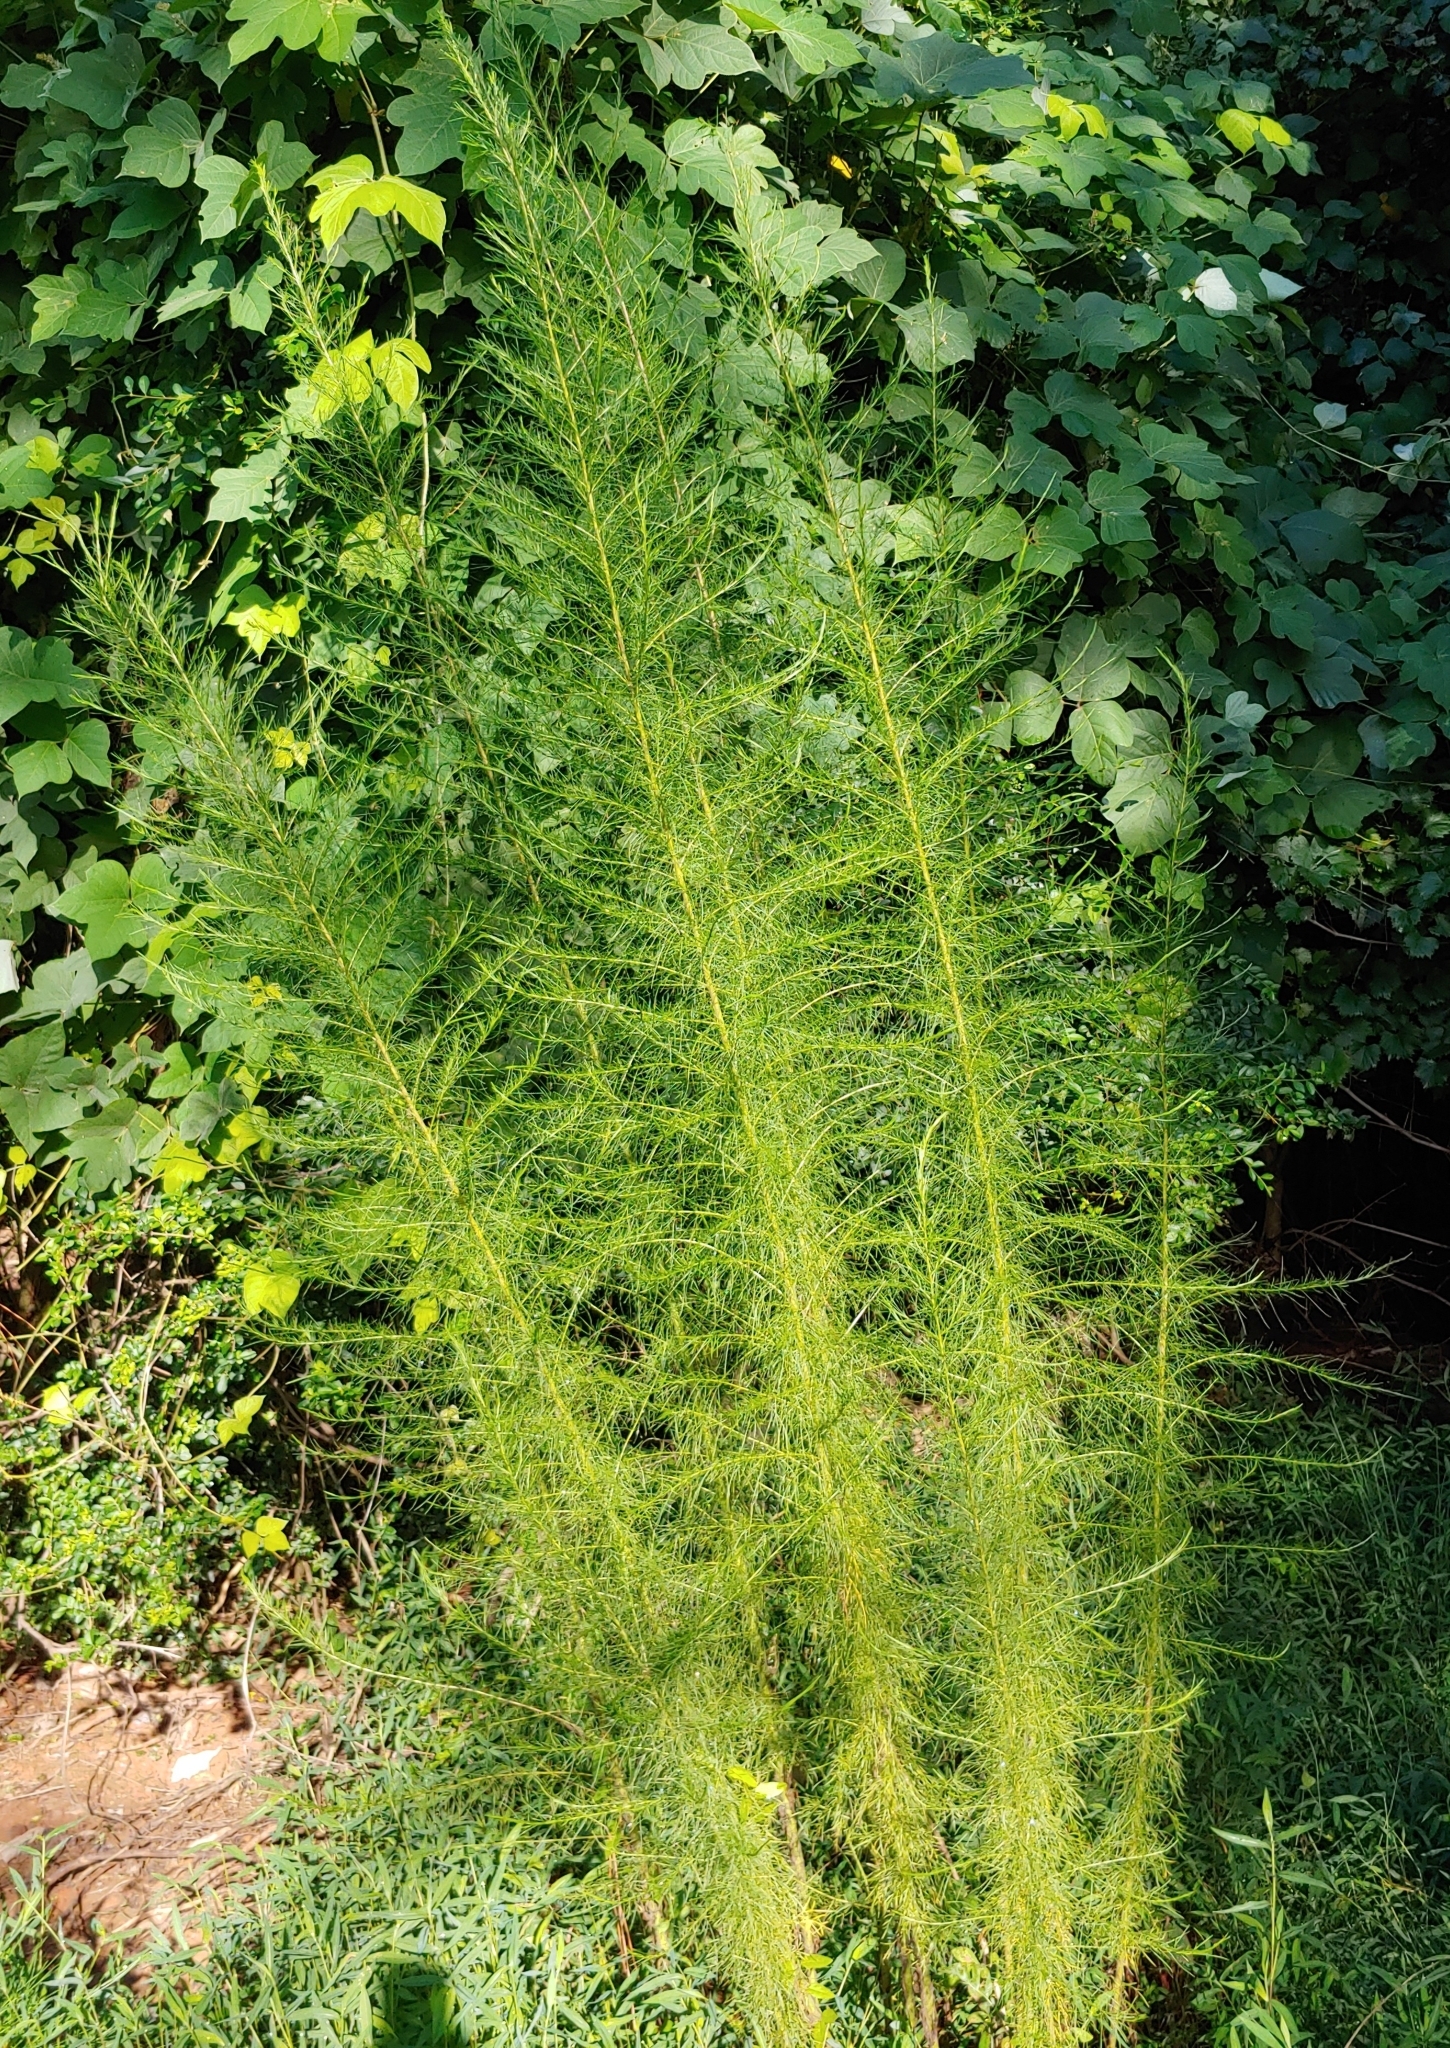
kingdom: Plantae
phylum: Tracheophyta
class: Magnoliopsida
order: Asterales
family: Asteraceae
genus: Eupatorium
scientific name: Eupatorium capillifolium
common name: Dog-fennel
